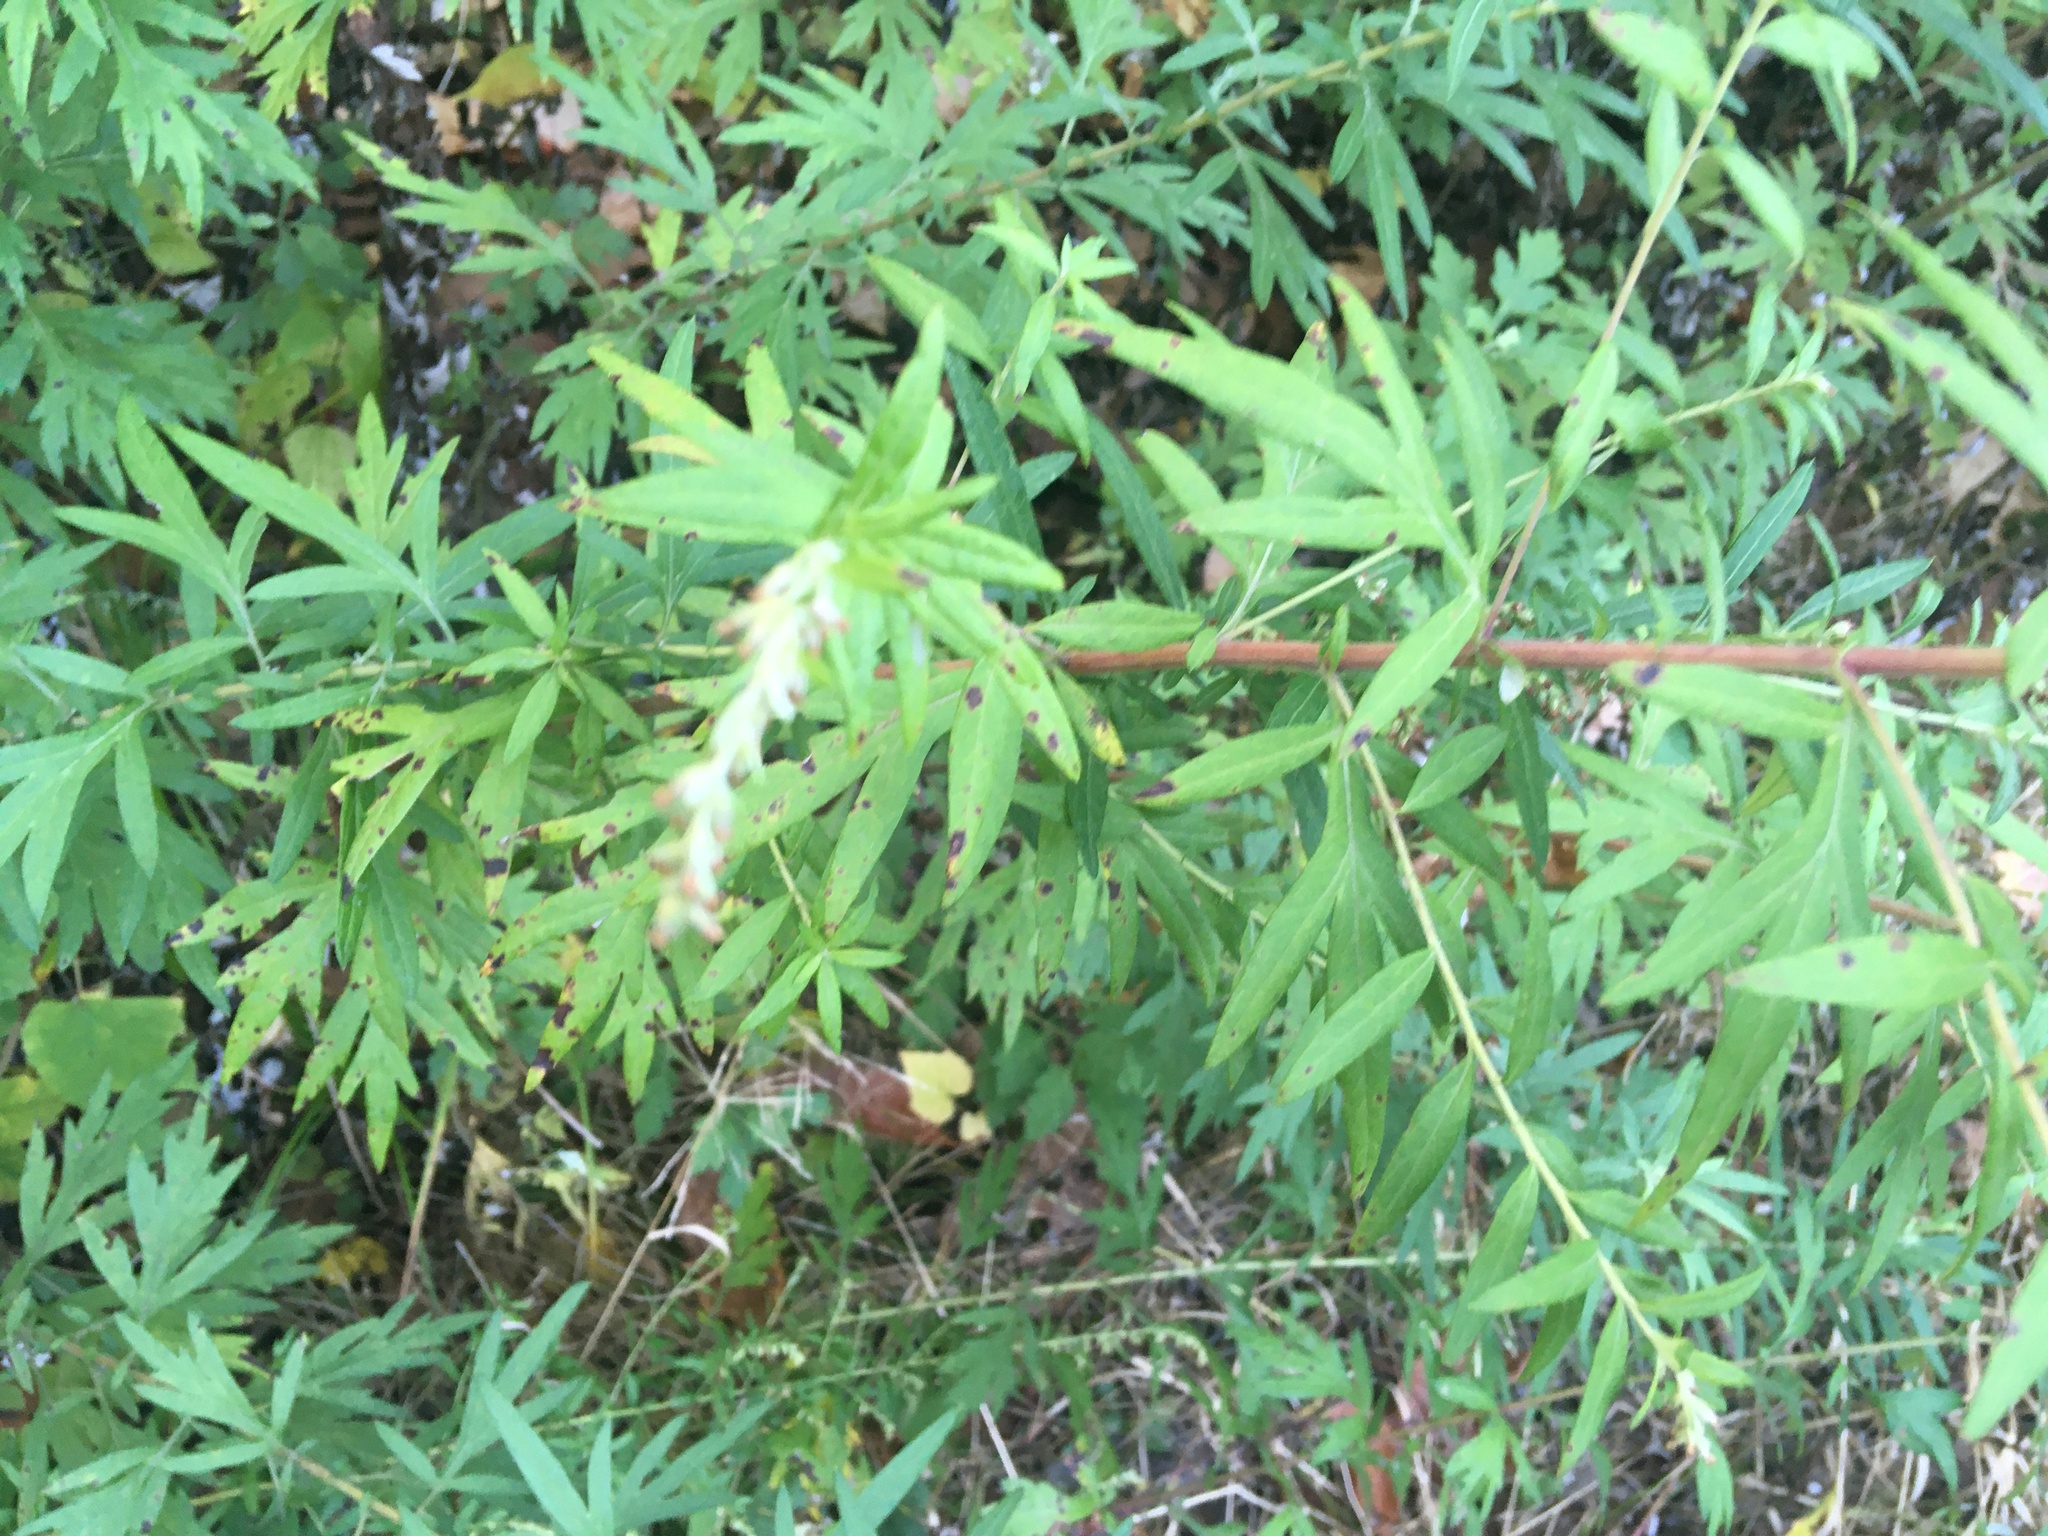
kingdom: Plantae
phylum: Tracheophyta
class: Magnoliopsida
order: Asterales
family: Asteraceae
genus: Artemisia
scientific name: Artemisia vulgaris
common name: Mugwort
